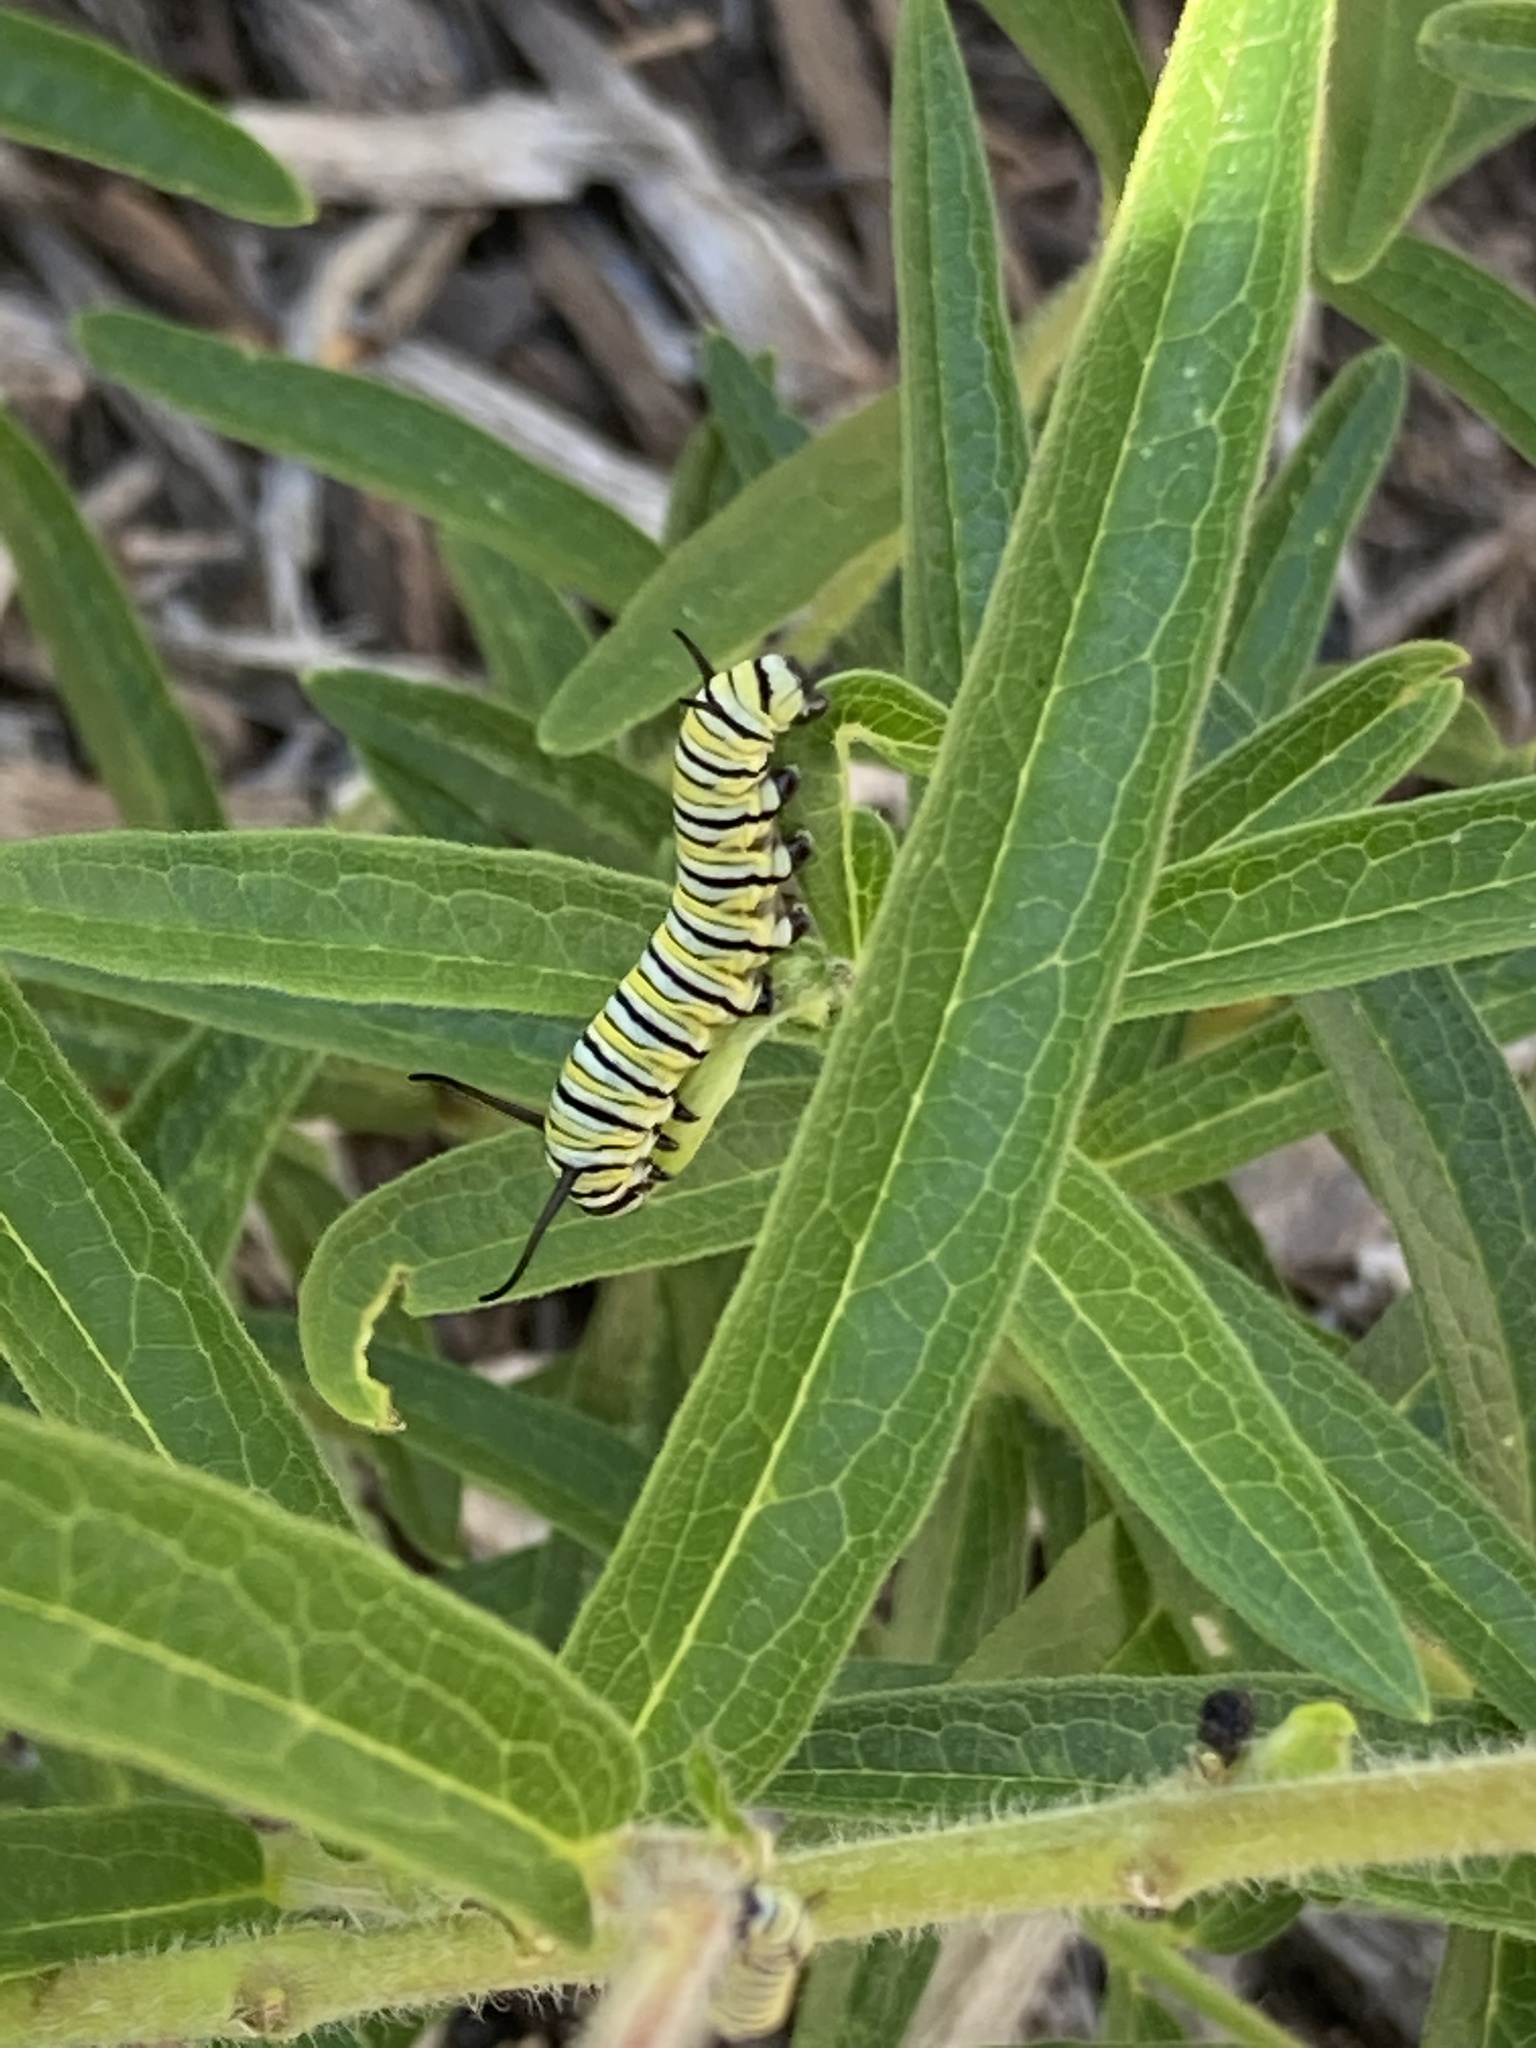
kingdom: Animalia
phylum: Arthropoda
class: Insecta
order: Lepidoptera
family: Nymphalidae
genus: Danaus
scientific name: Danaus plexippus
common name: Monarch
